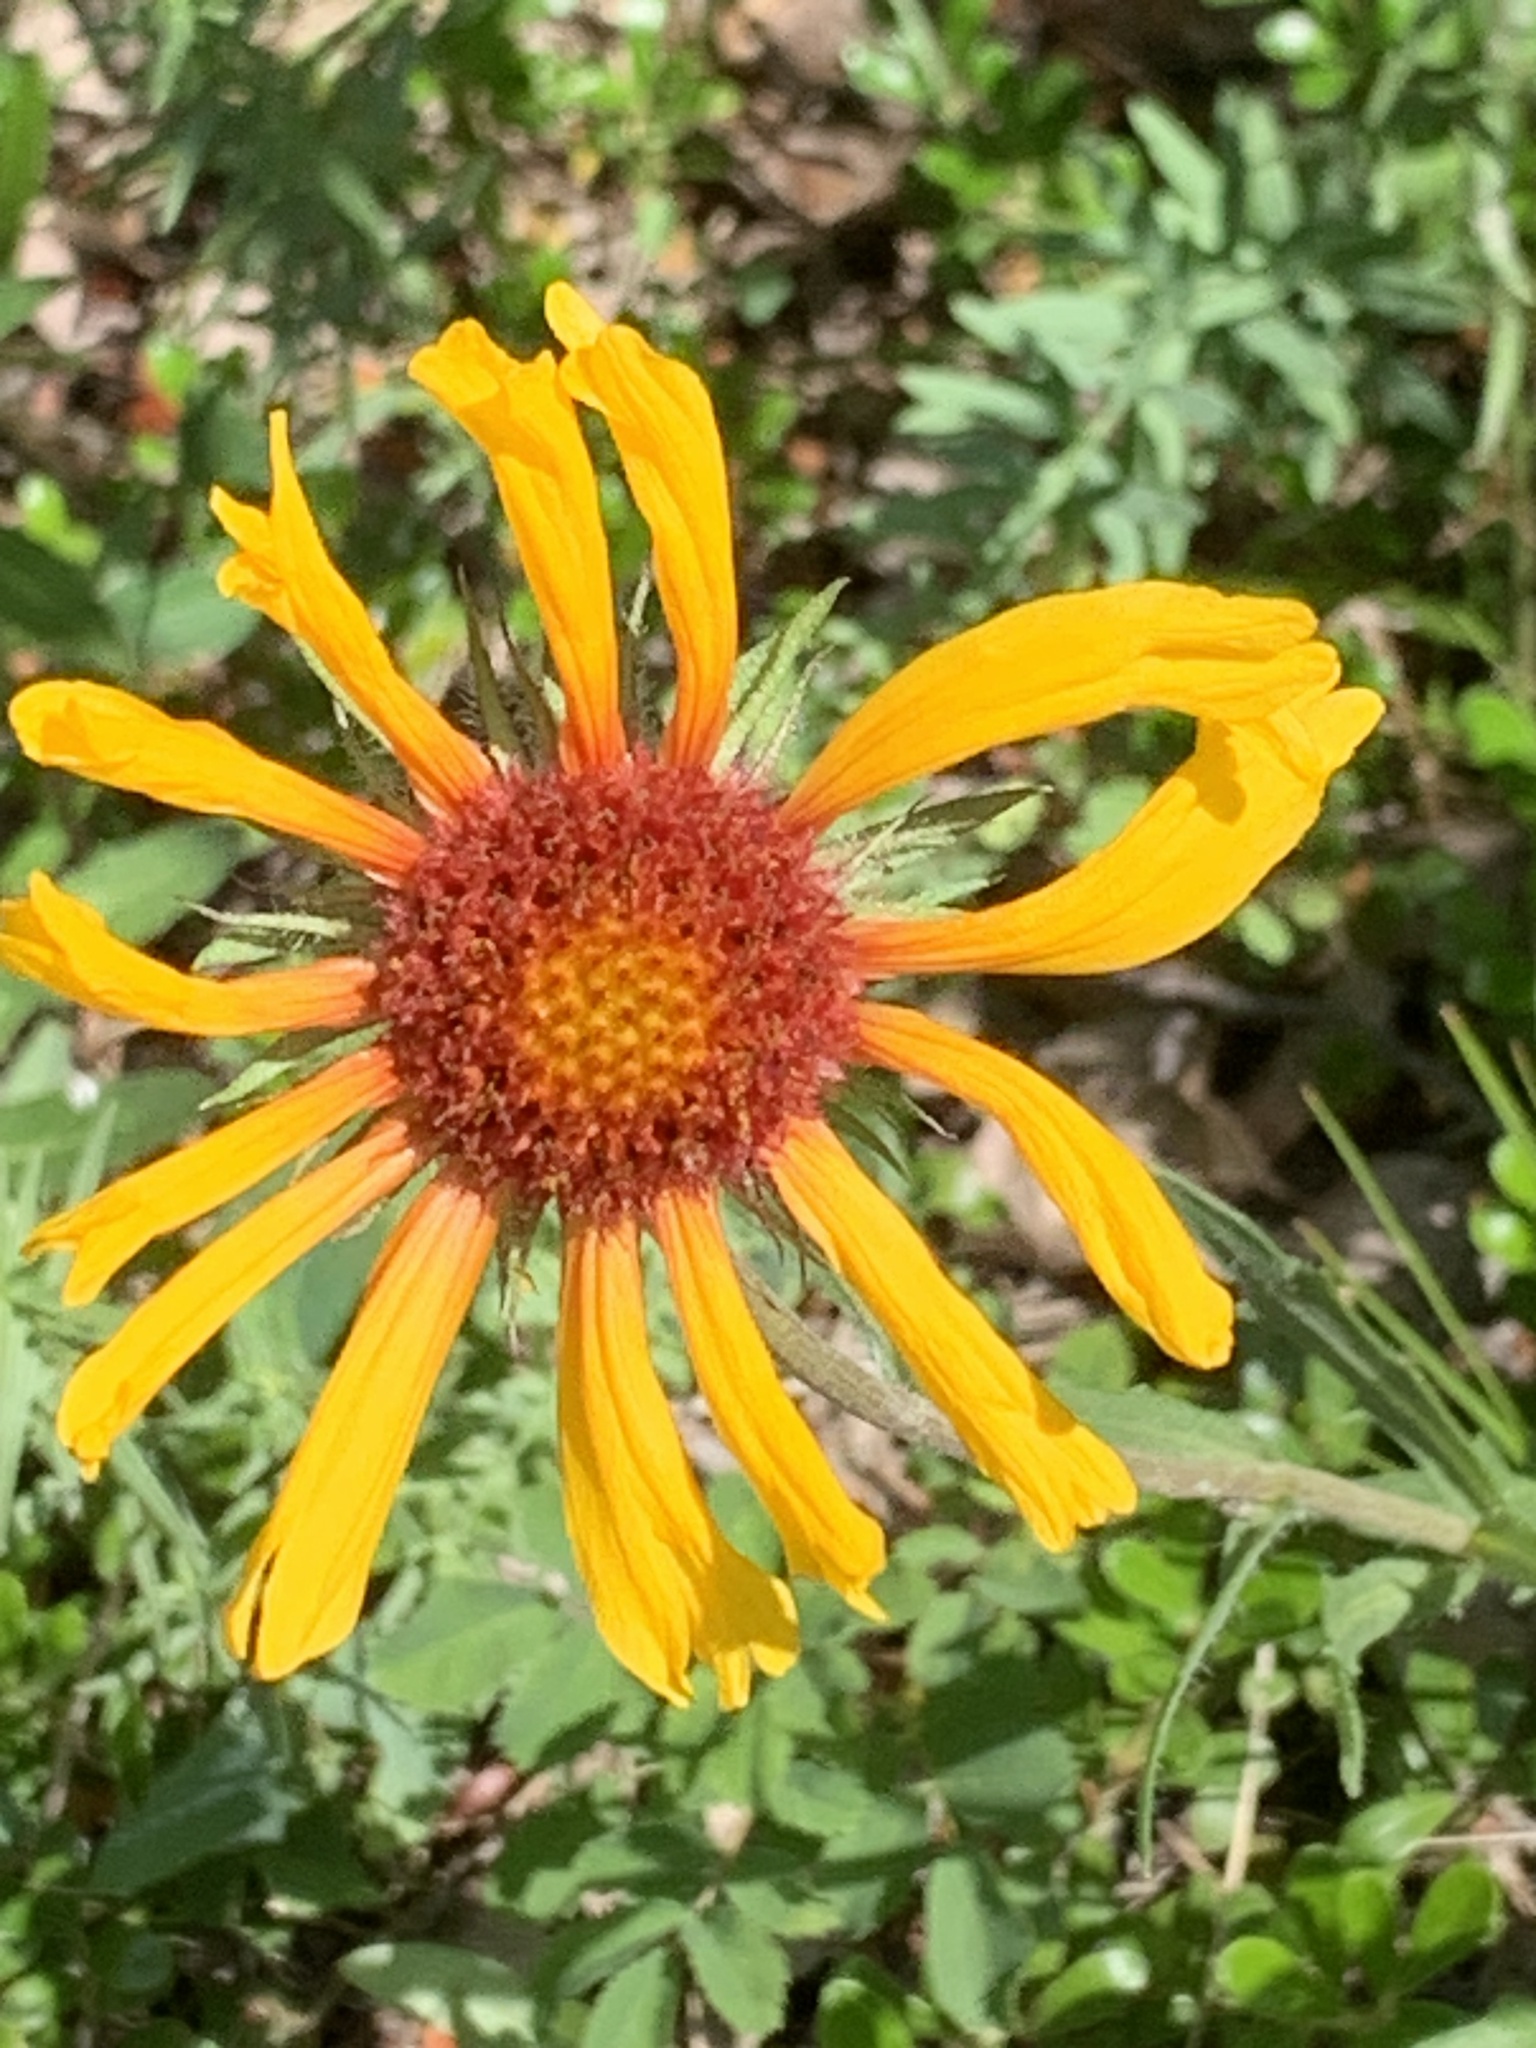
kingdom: Plantae
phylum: Tracheophyta
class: Magnoliopsida
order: Asterales
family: Asteraceae
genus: Gaillardia
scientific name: Gaillardia aristata
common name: Blanket-flower
